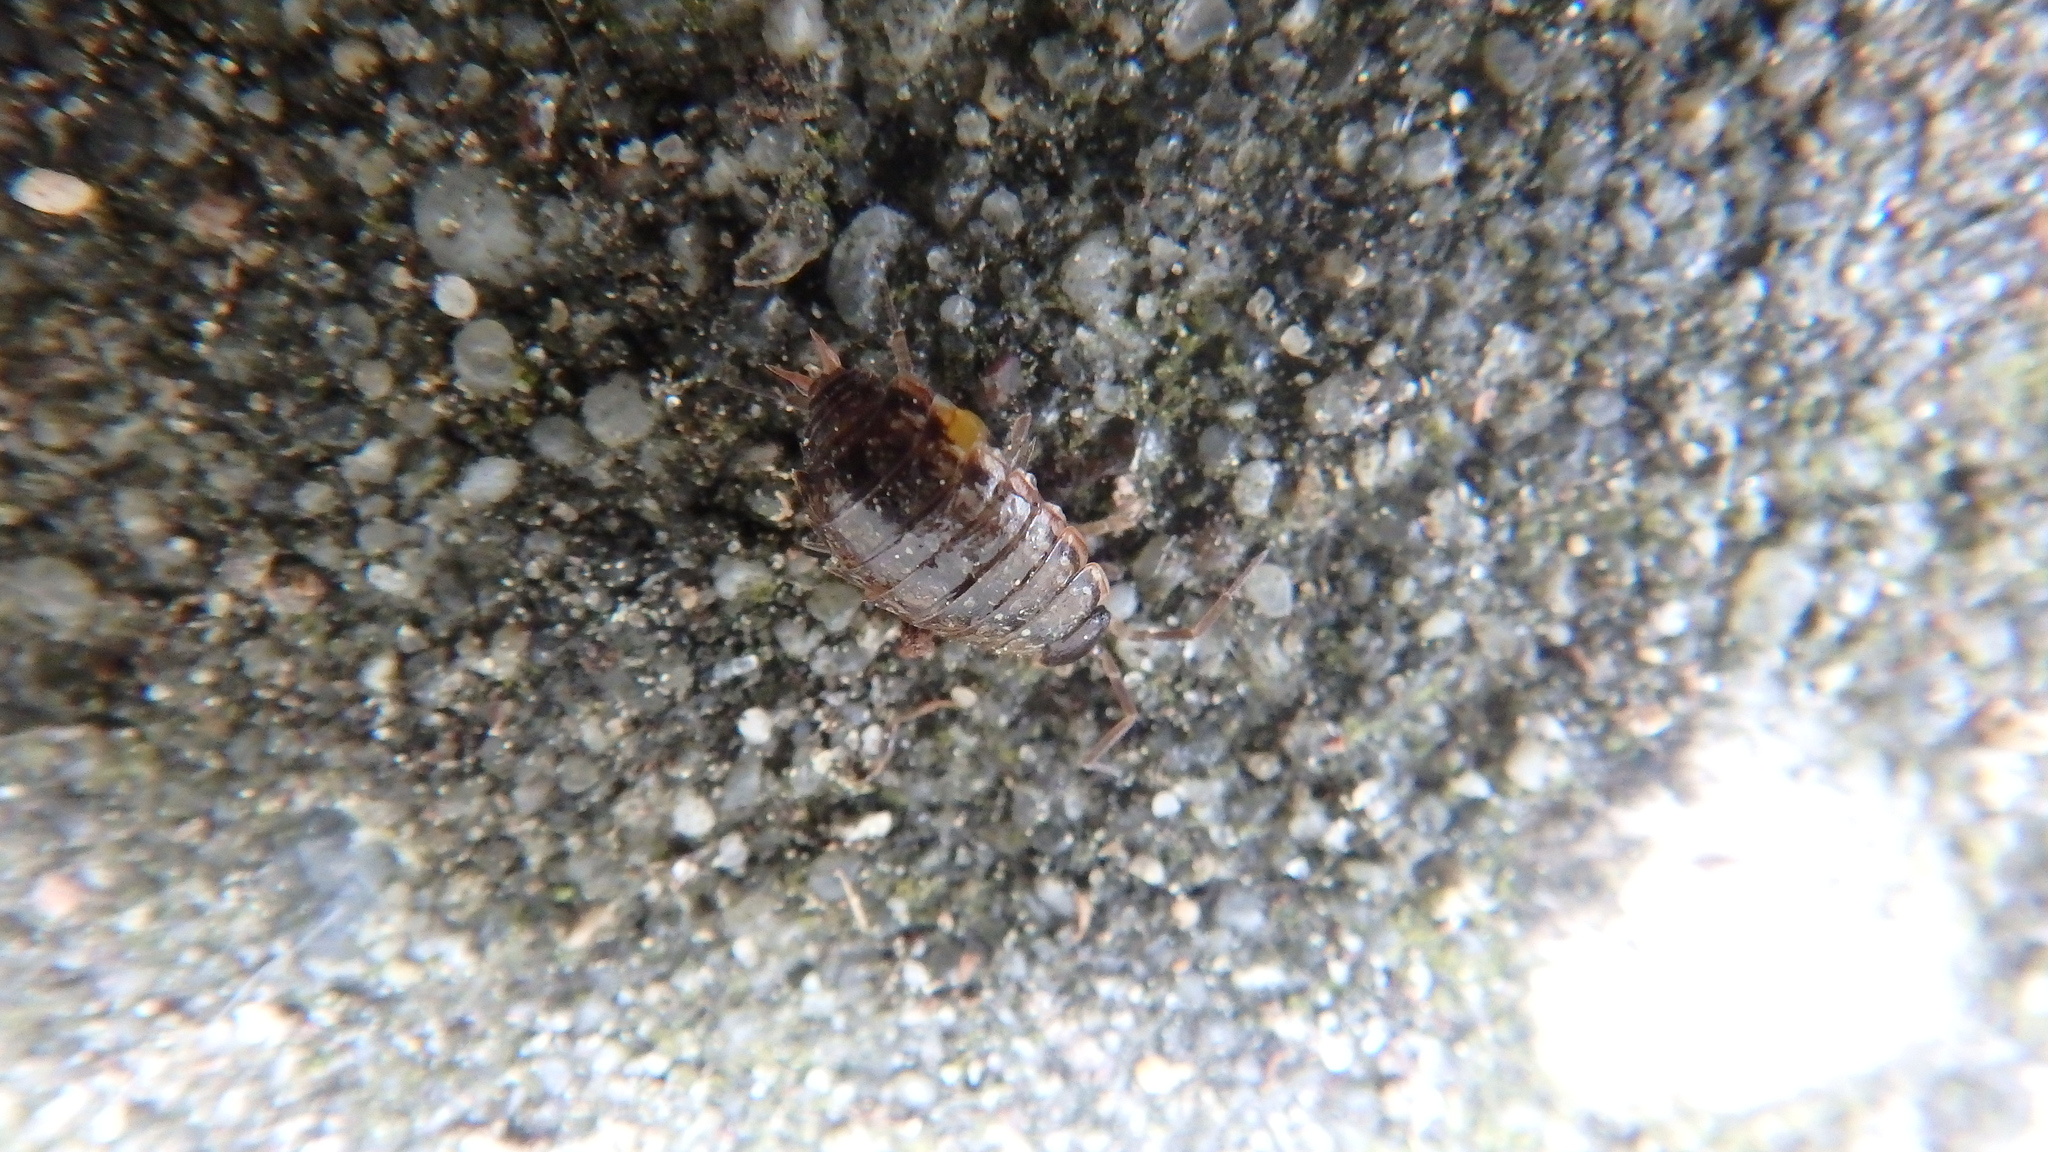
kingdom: Animalia
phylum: Arthropoda
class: Malacostraca
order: Isopoda
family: Philosciidae
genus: Philoscia
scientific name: Philoscia muscorum
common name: Common striped woodlouse
